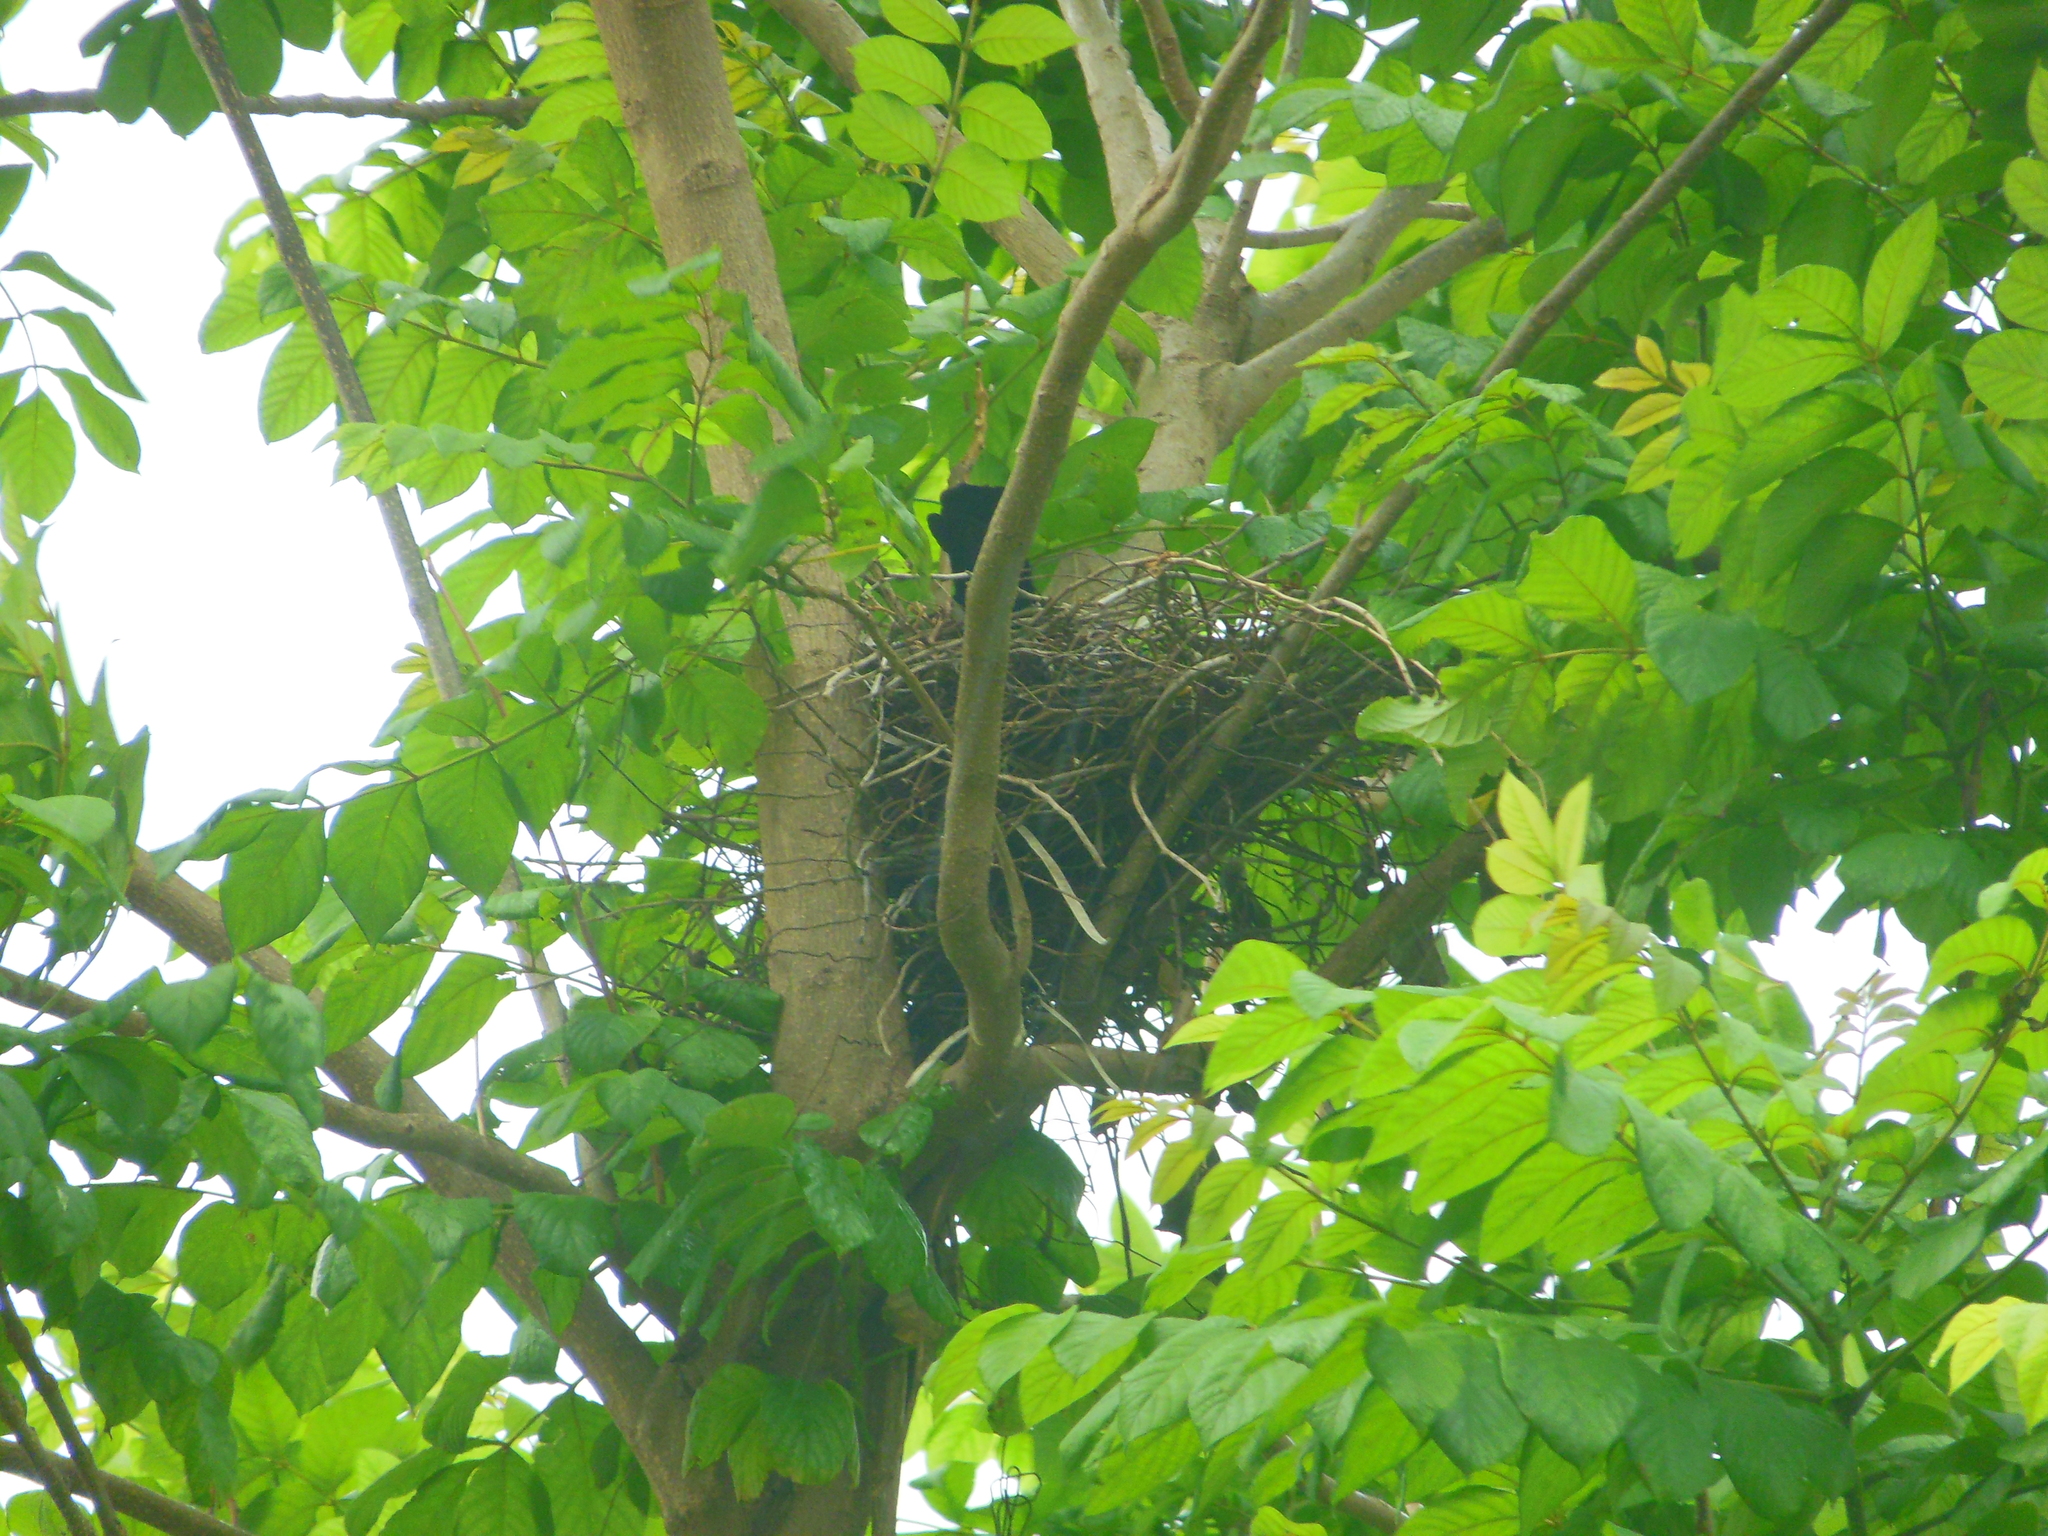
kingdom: Animalia
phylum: Chordata
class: Aves
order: Passeriformes
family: Corvidae
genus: Corvus
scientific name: Corvus splendens
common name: House crow
